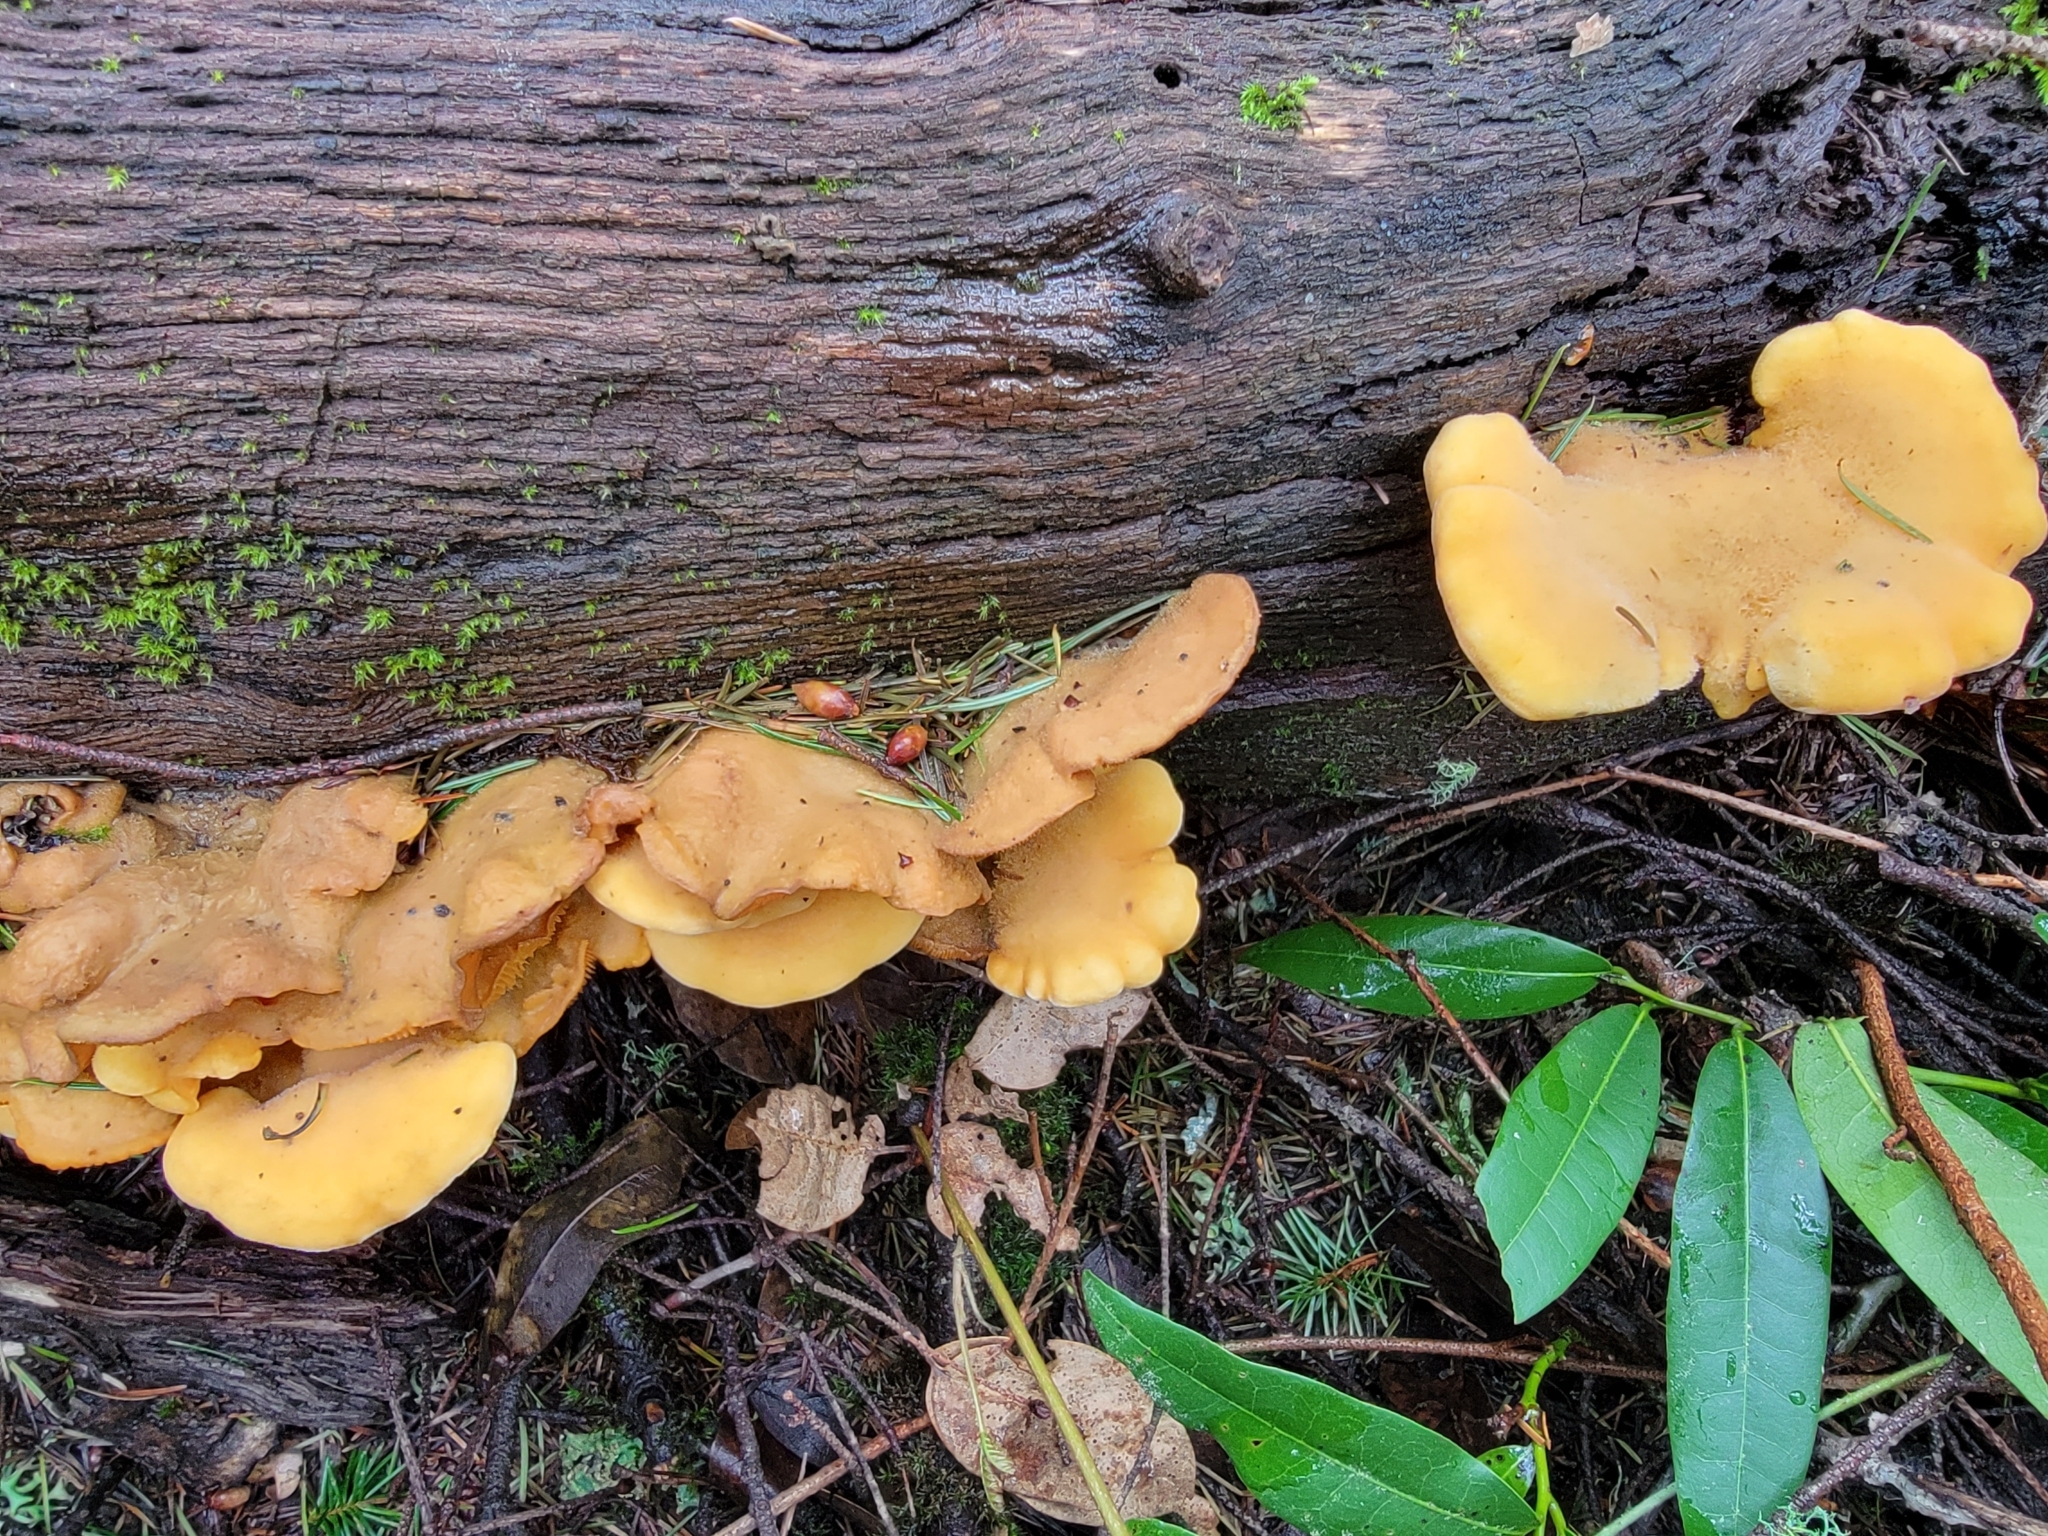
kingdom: Fungi
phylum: Basidiomycota
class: Agaricomycetes
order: Agaricales
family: Phyllotopsidaceae
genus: Phyllotopsis
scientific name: Phyllotopsis nidulans
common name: Orange mock oyster
